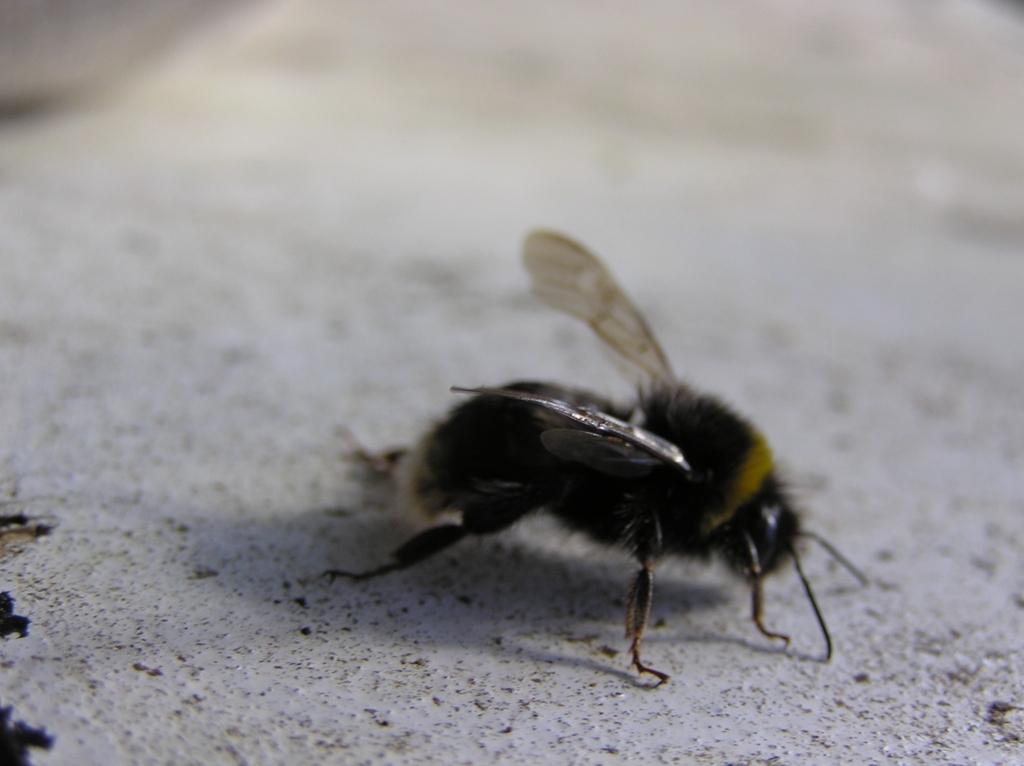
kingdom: Animalia
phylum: Arthropoda
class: Insecta
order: Hymenoptera
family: Apidae
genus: Bombus
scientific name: Bombus terrestris
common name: Buff-tailed bumblebee
